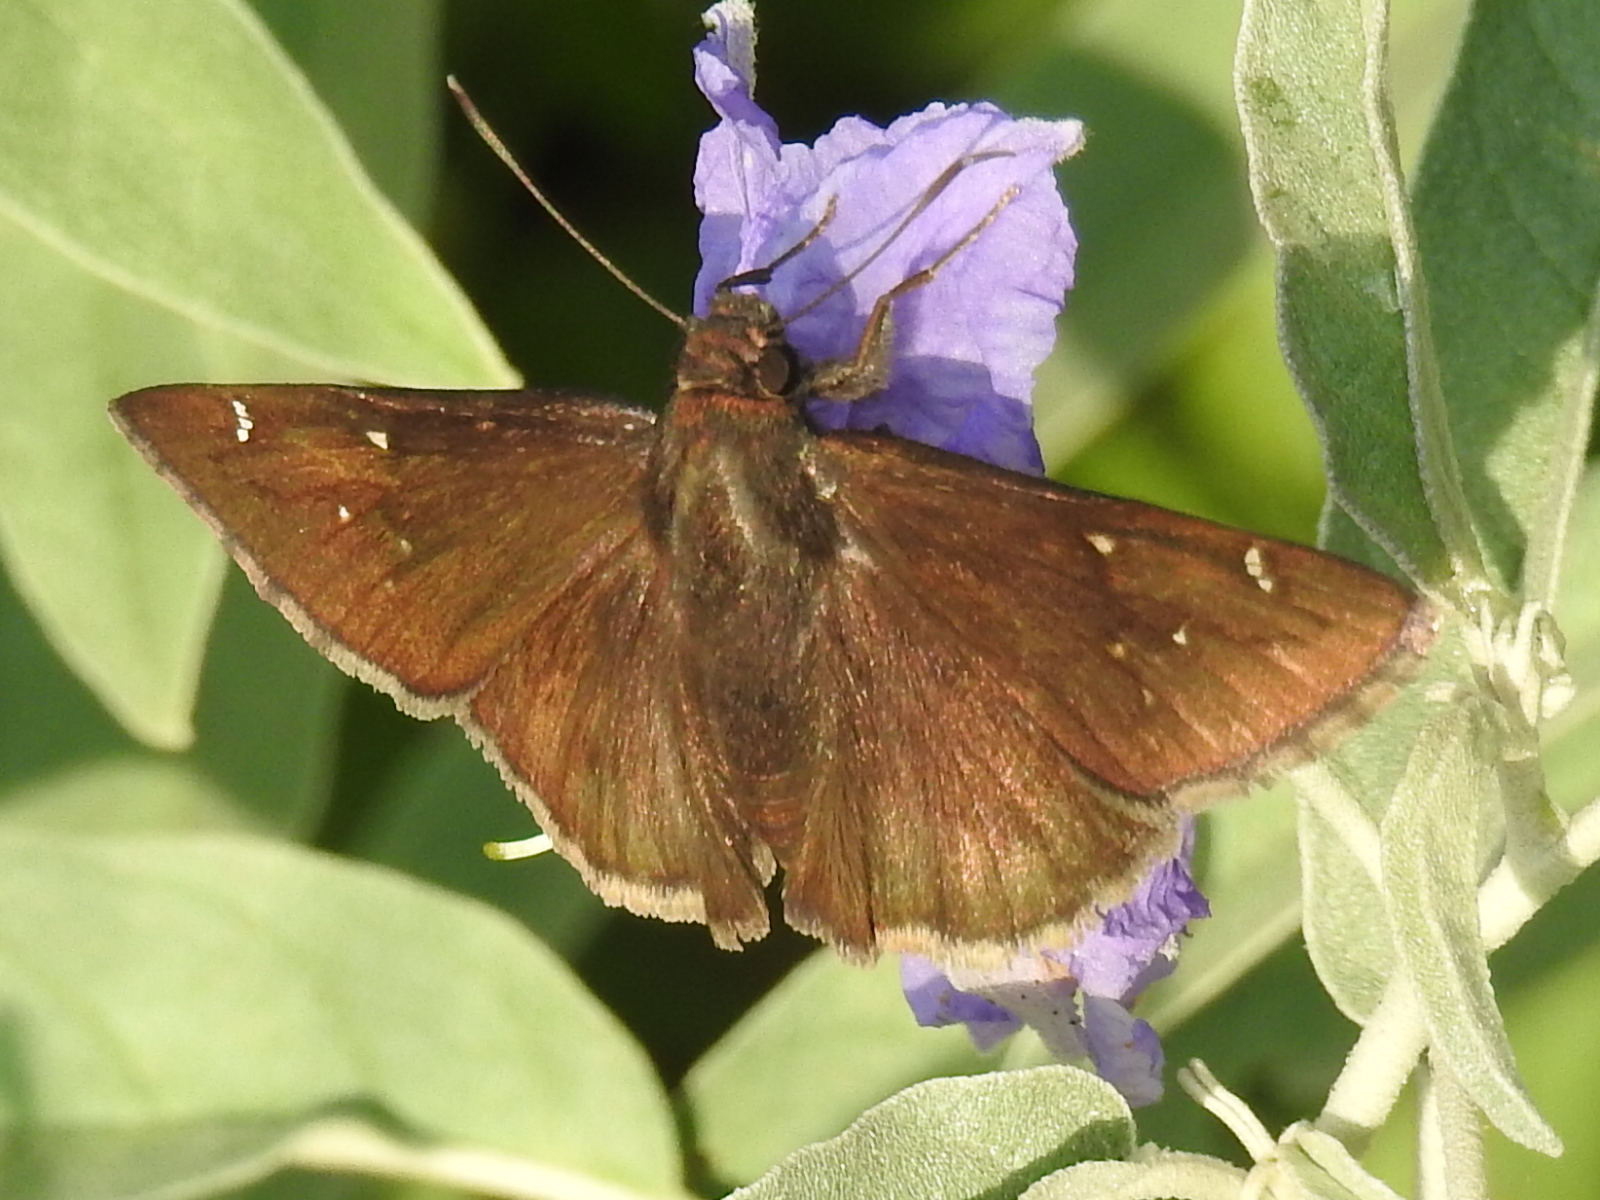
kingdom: Animalia
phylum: Arthropoda
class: Insecta
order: Lepidoptera
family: Hesperiidae
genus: Thorybes
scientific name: Thorybes pylades
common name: Northern cloudywing
